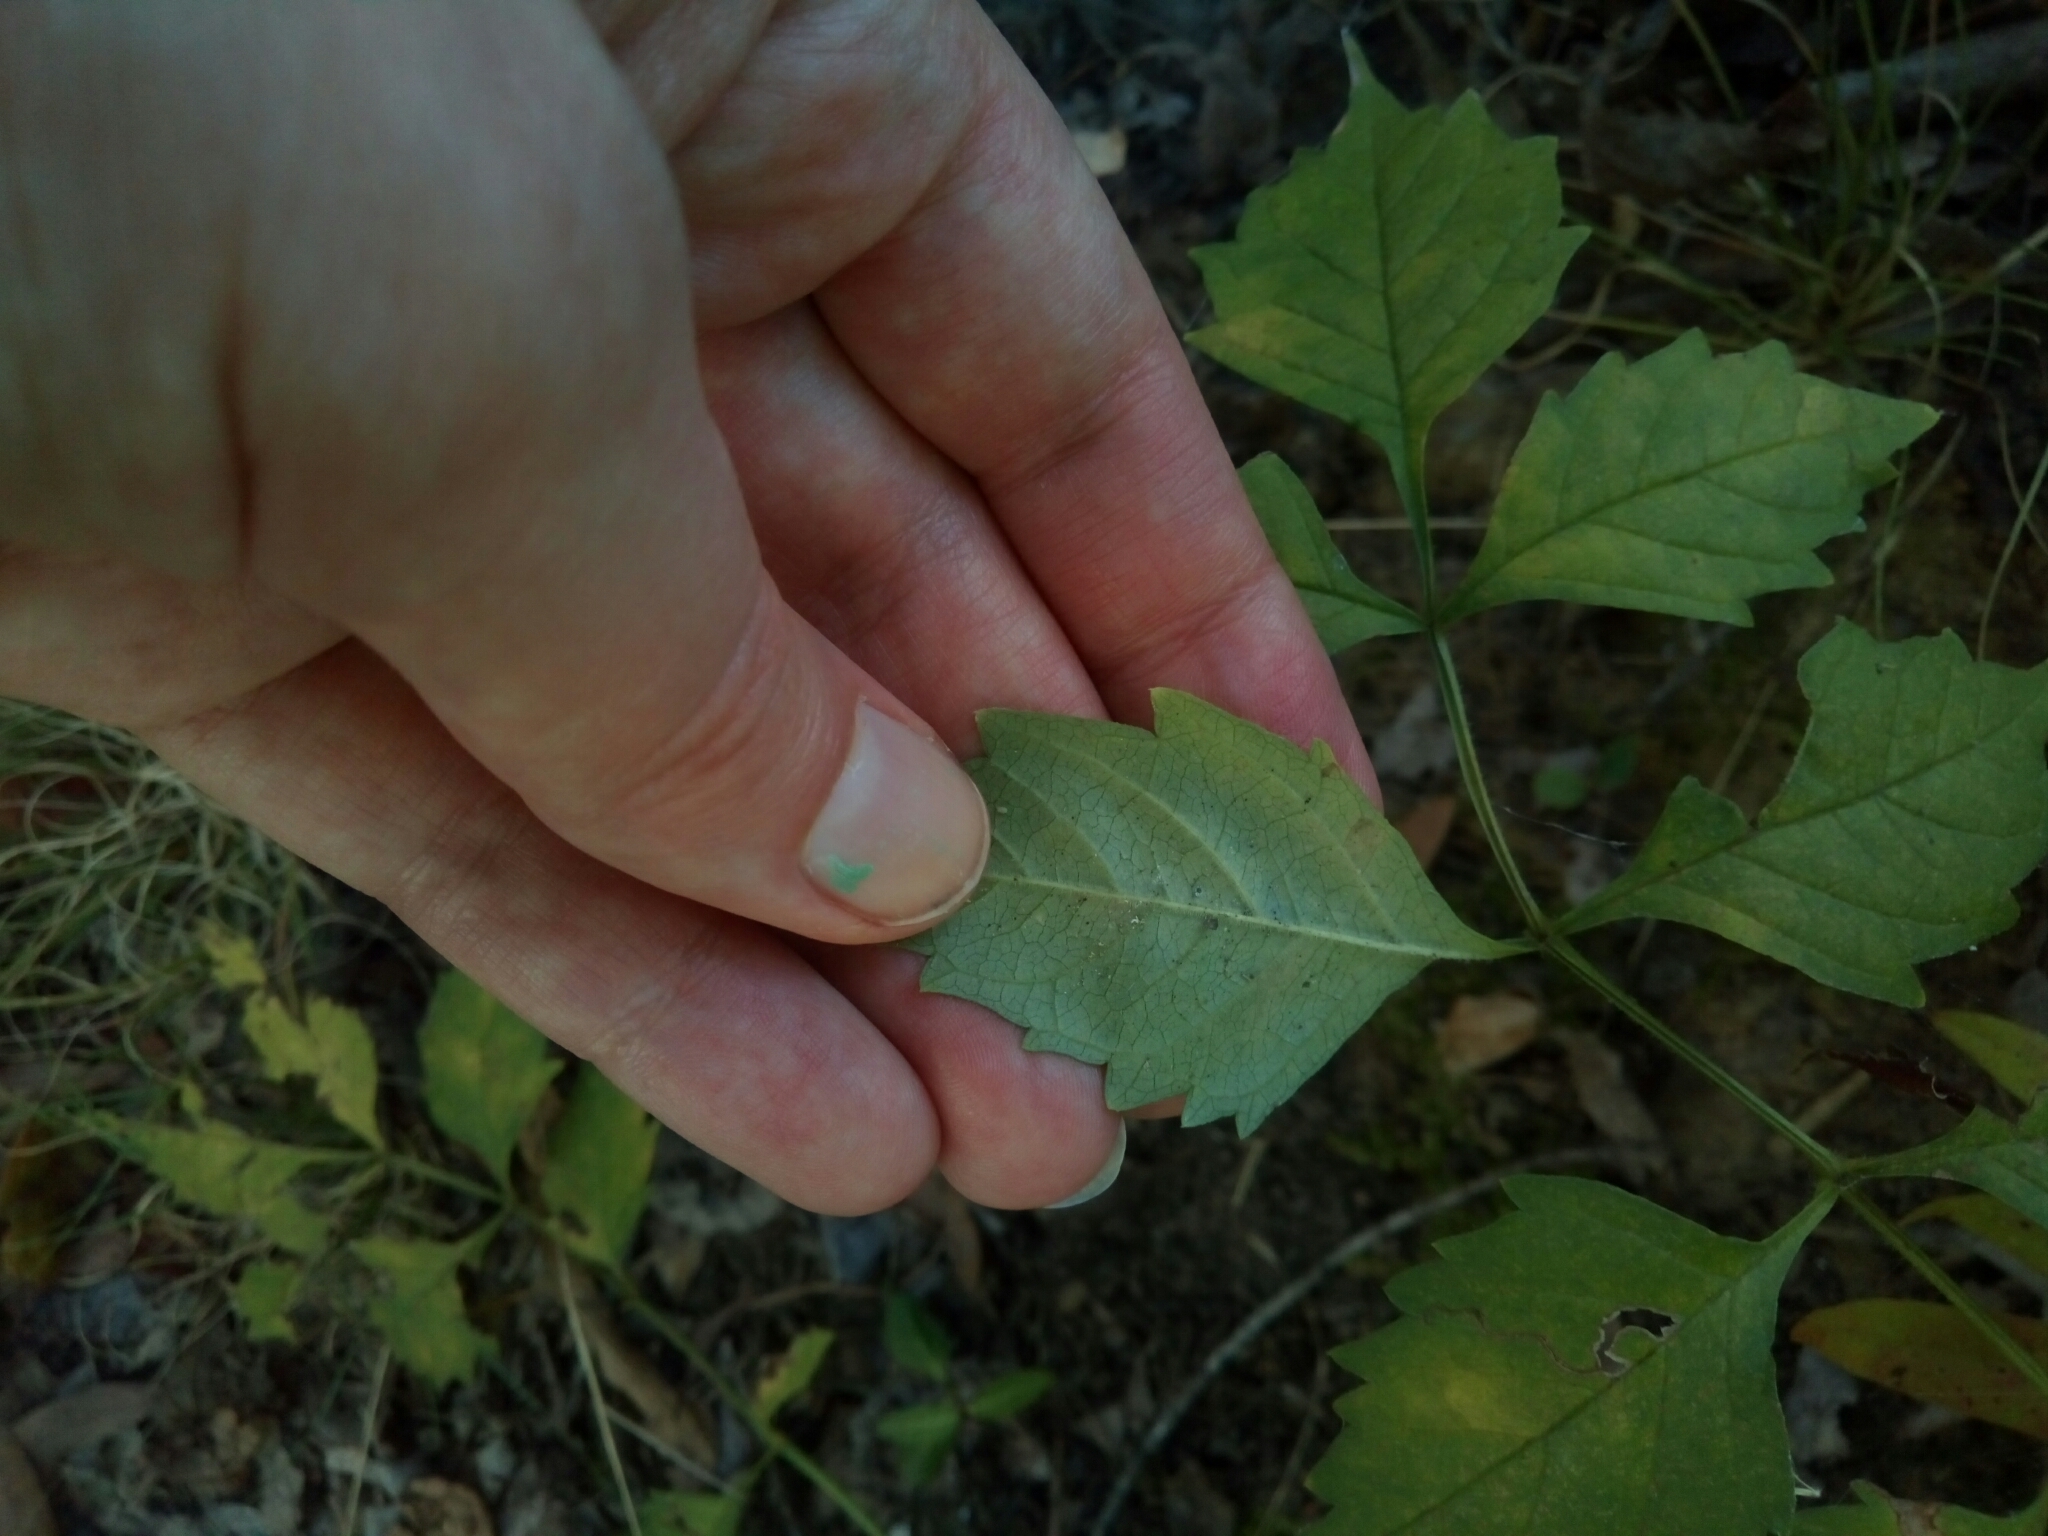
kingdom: Plantae
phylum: Tracheophyta
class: Magnoliopsida
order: Lamiales
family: Bignoniaceae
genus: Campsis
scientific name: Campsis radicans
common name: Trumpet-creeper
